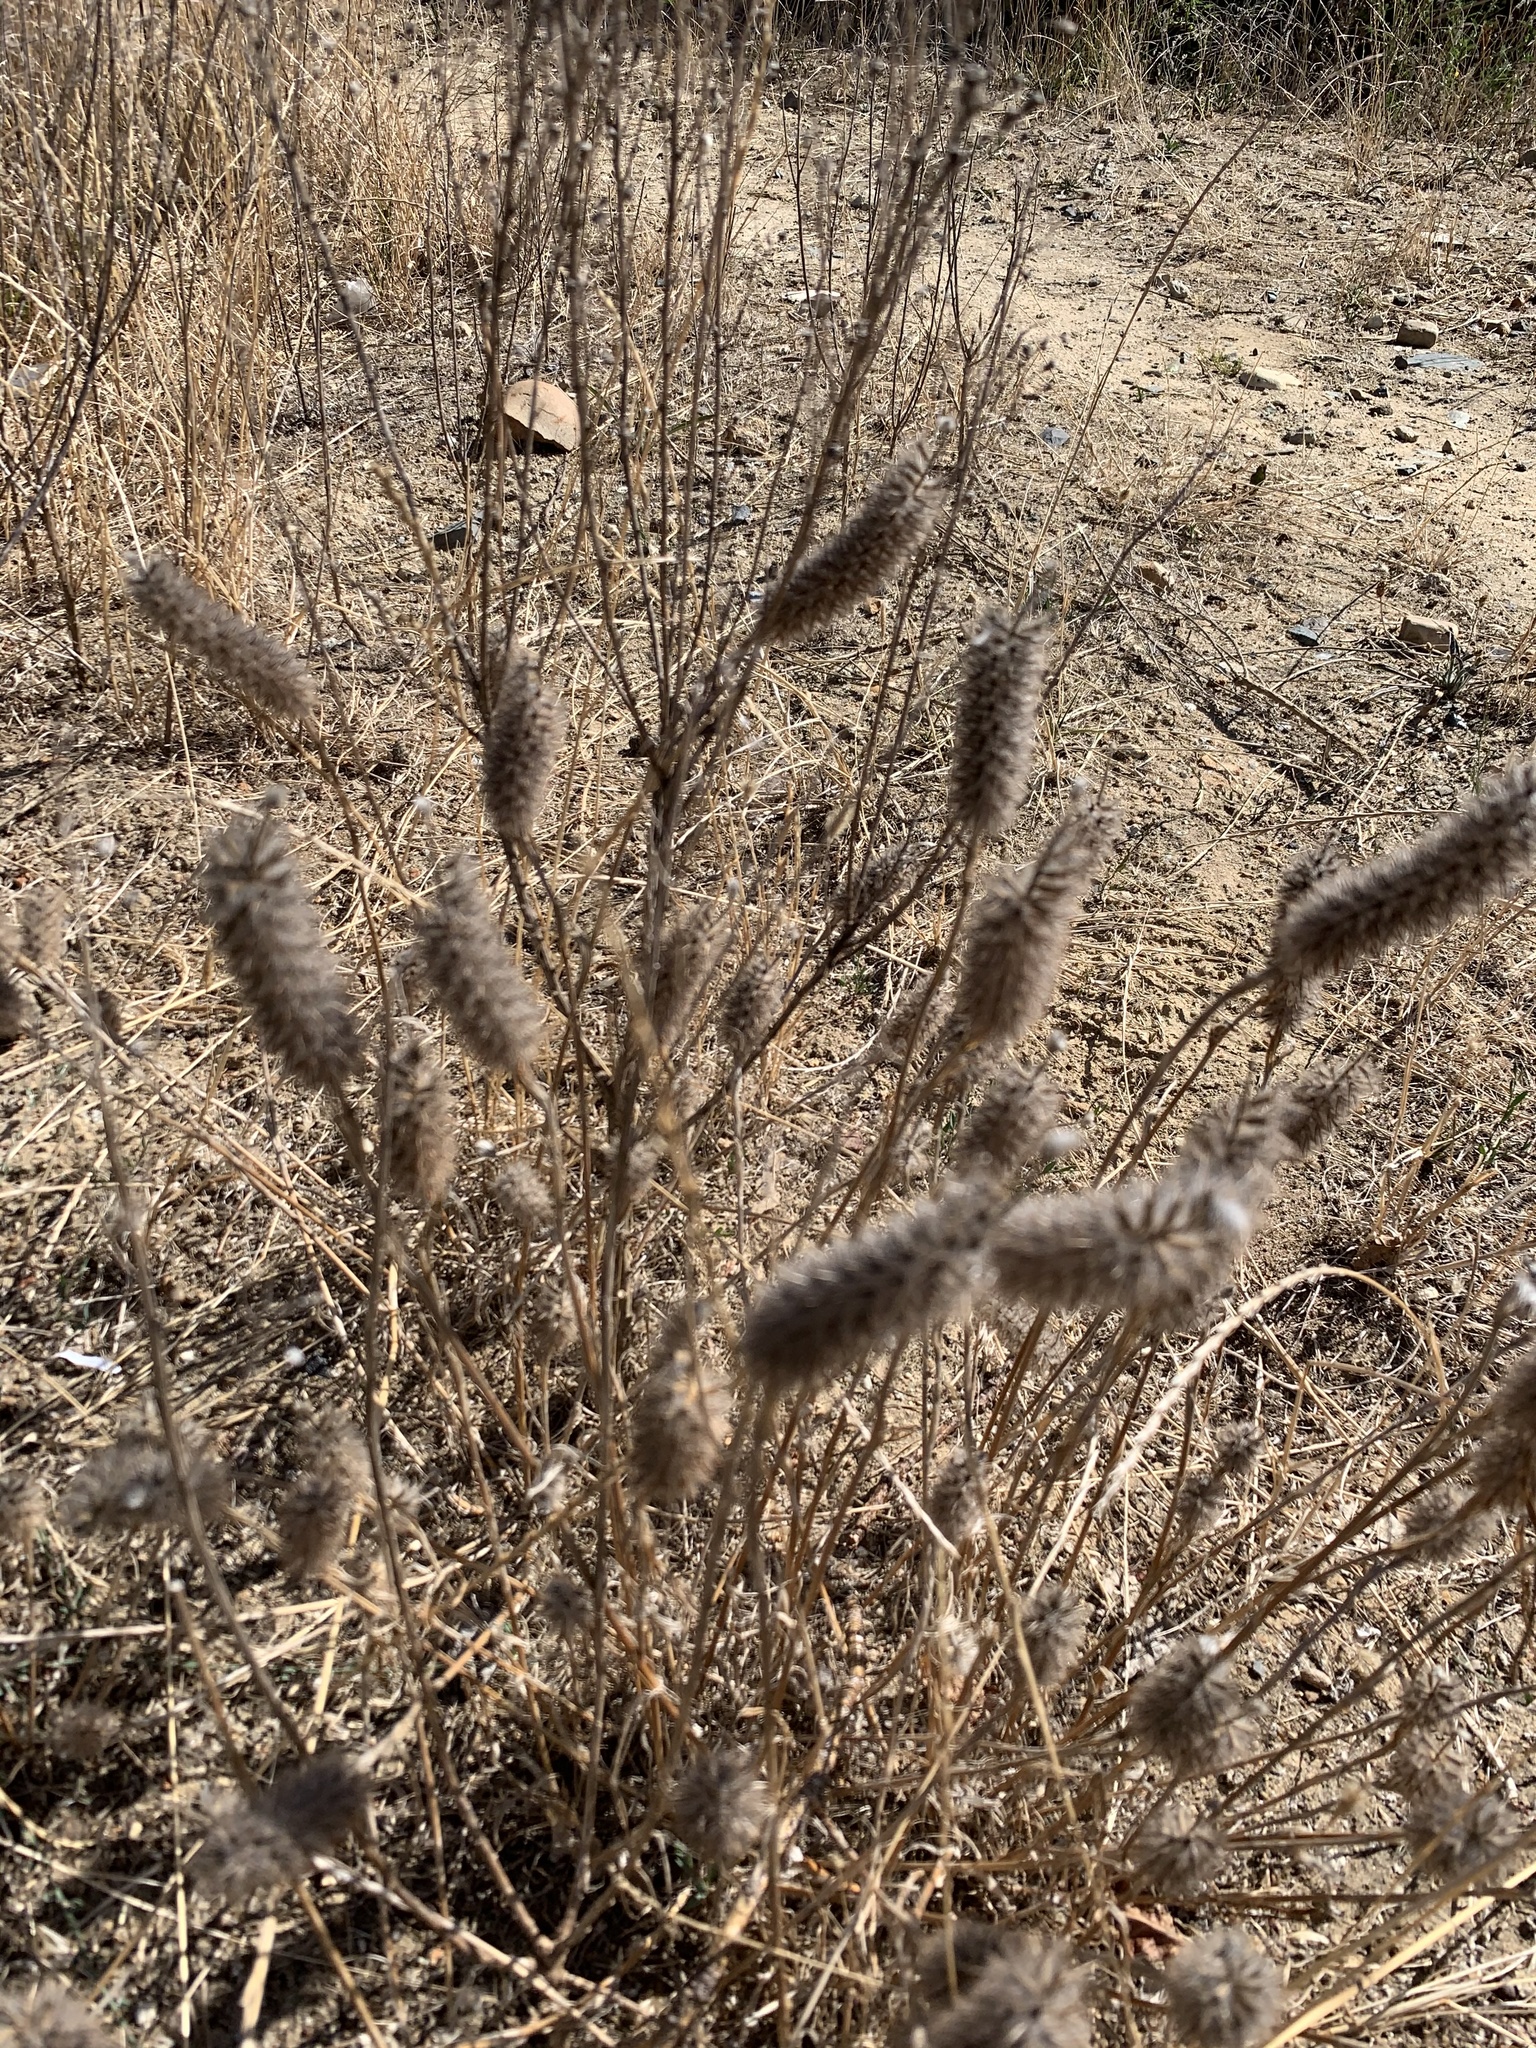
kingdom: Plantae
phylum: Tracheophyta
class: Magnoliopsida
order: Fabales
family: Fabaceae
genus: Trifolium
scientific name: Trifolium angustifolium
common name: Narrow clover
